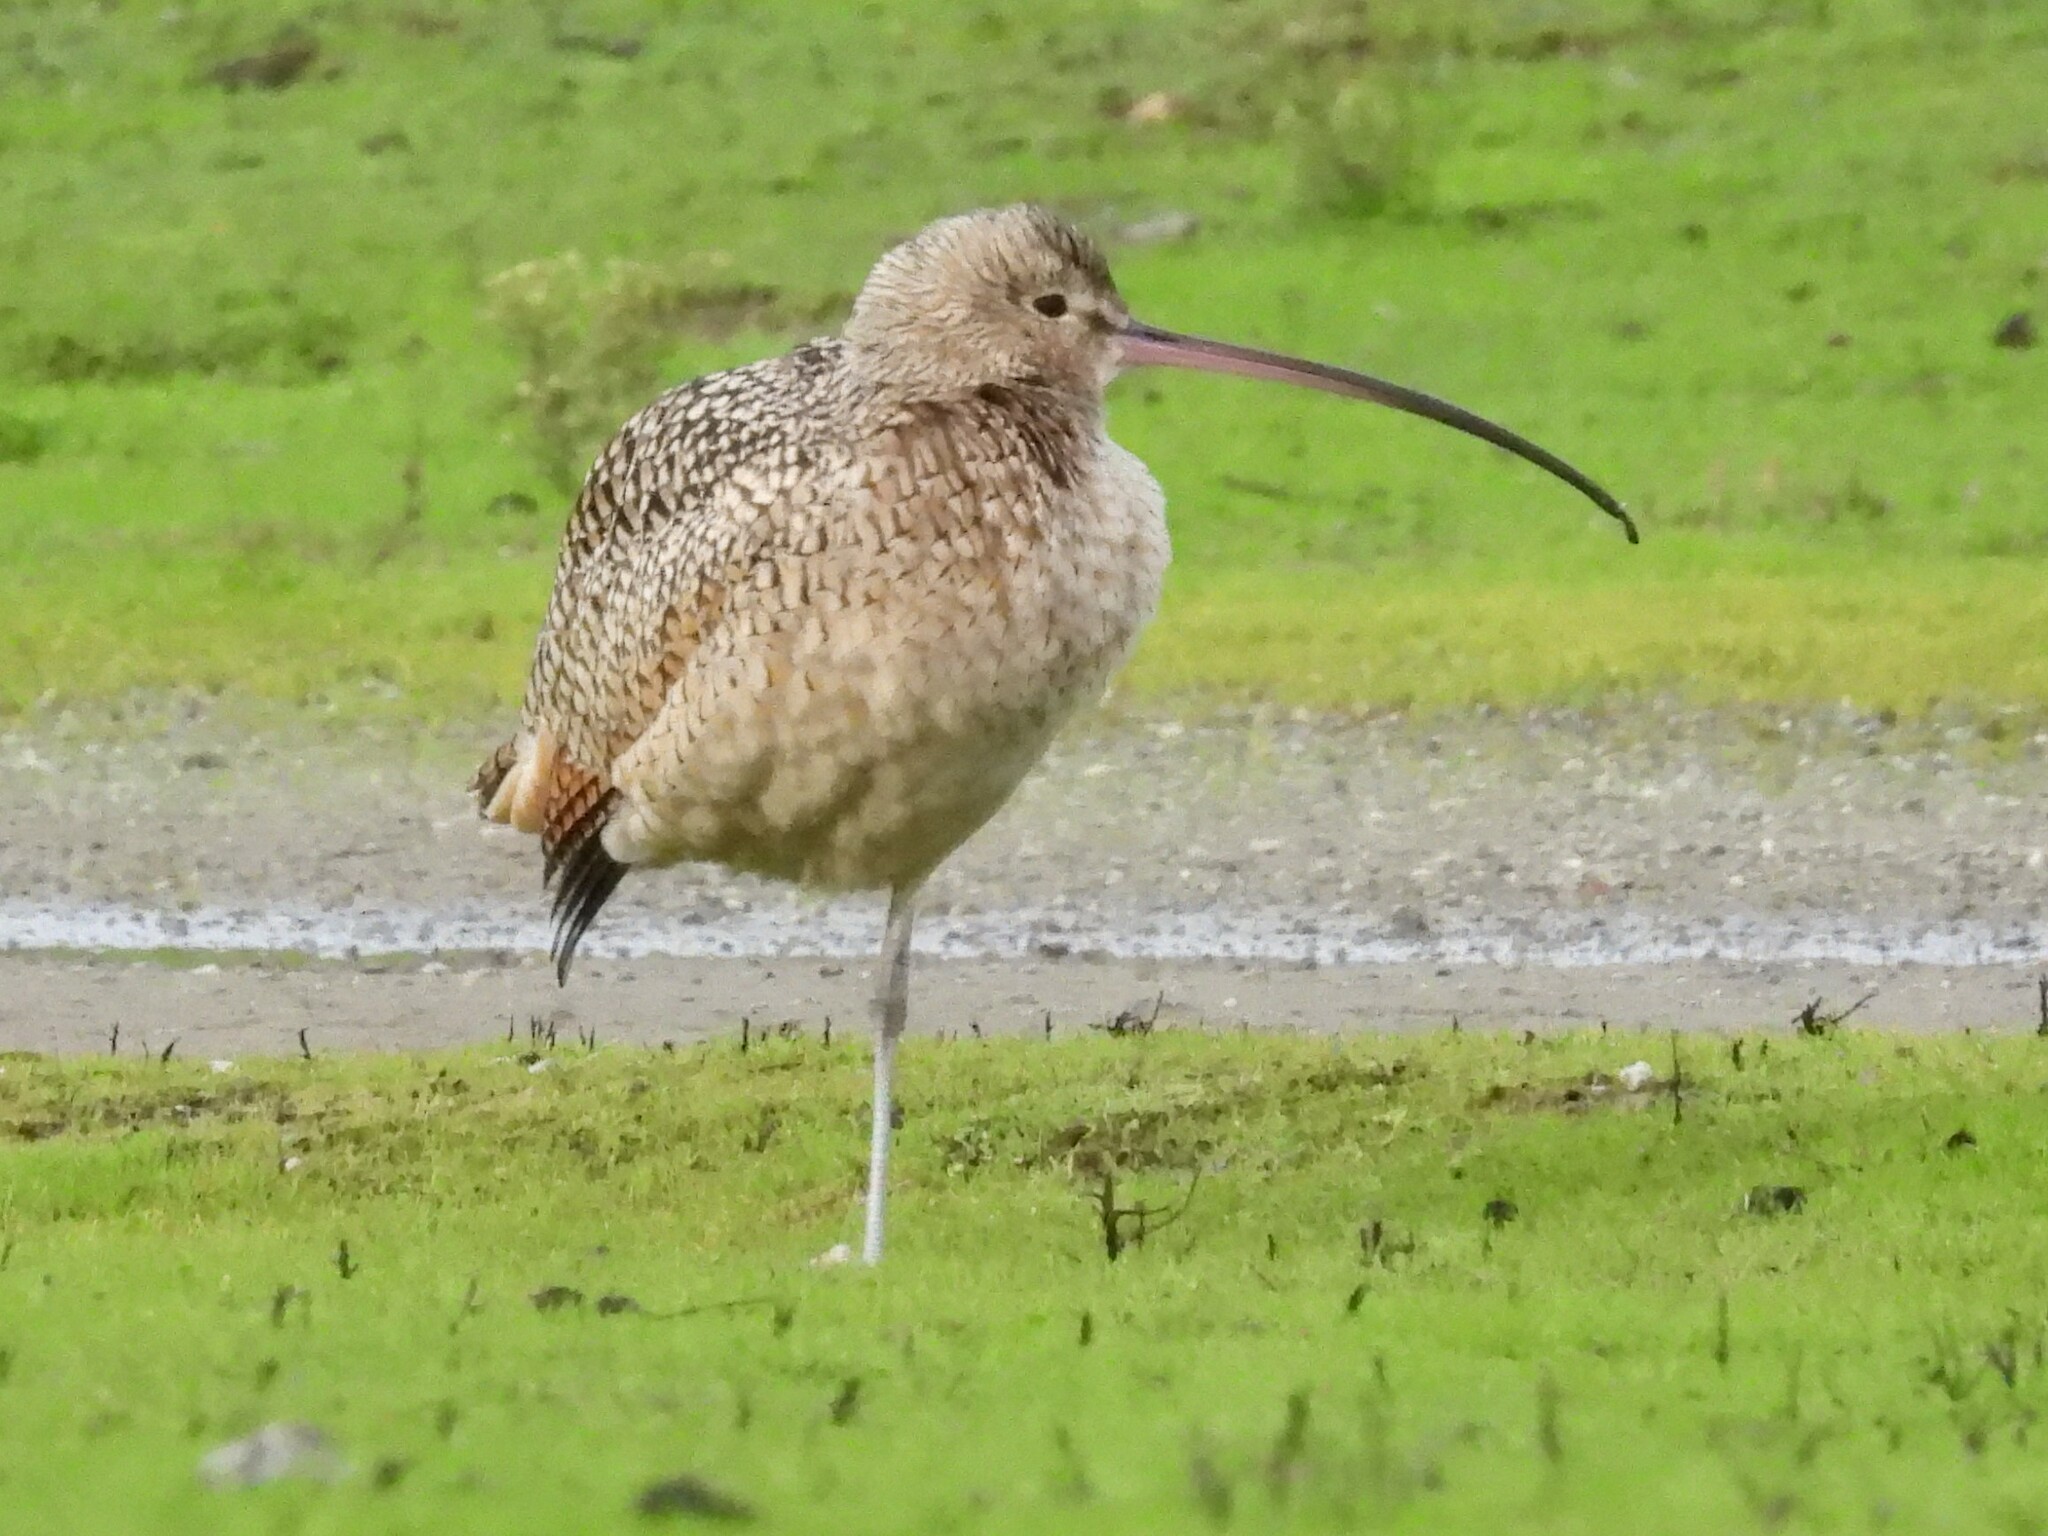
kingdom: Animalia
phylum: Chordata
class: Aves
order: Charadriiformes
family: Scolopacidae
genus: Numenius
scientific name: Numenius americanus
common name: Long-billed curlew
